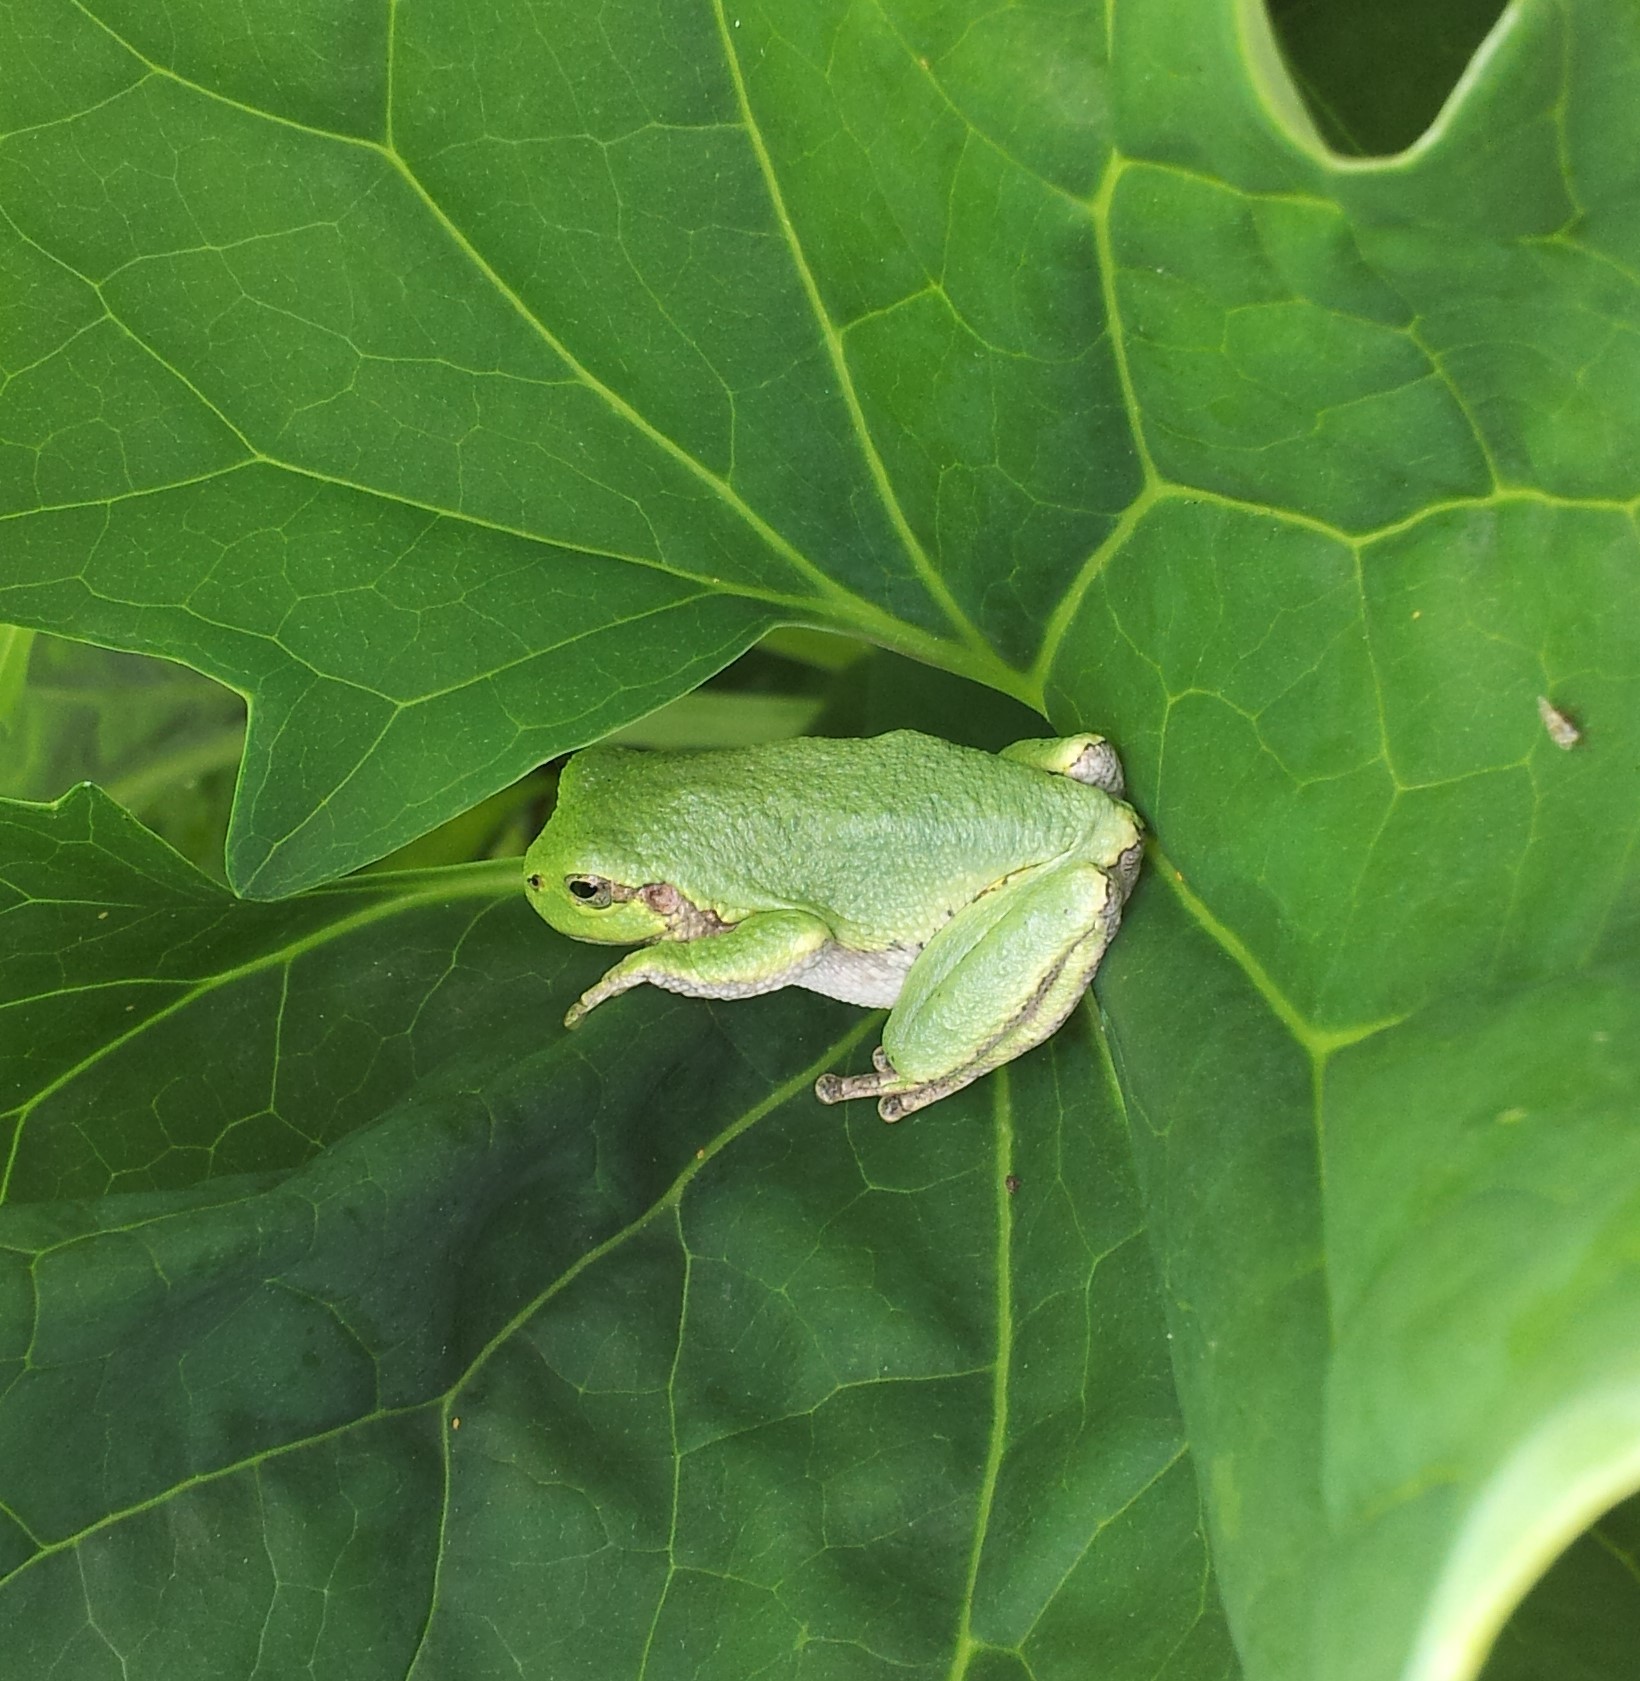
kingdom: Animalia
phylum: Chordata
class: Amphibia
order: Anura
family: Hylidae
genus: Dryophytes
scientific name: Dryophytes versicolor
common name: Gray treefrog
